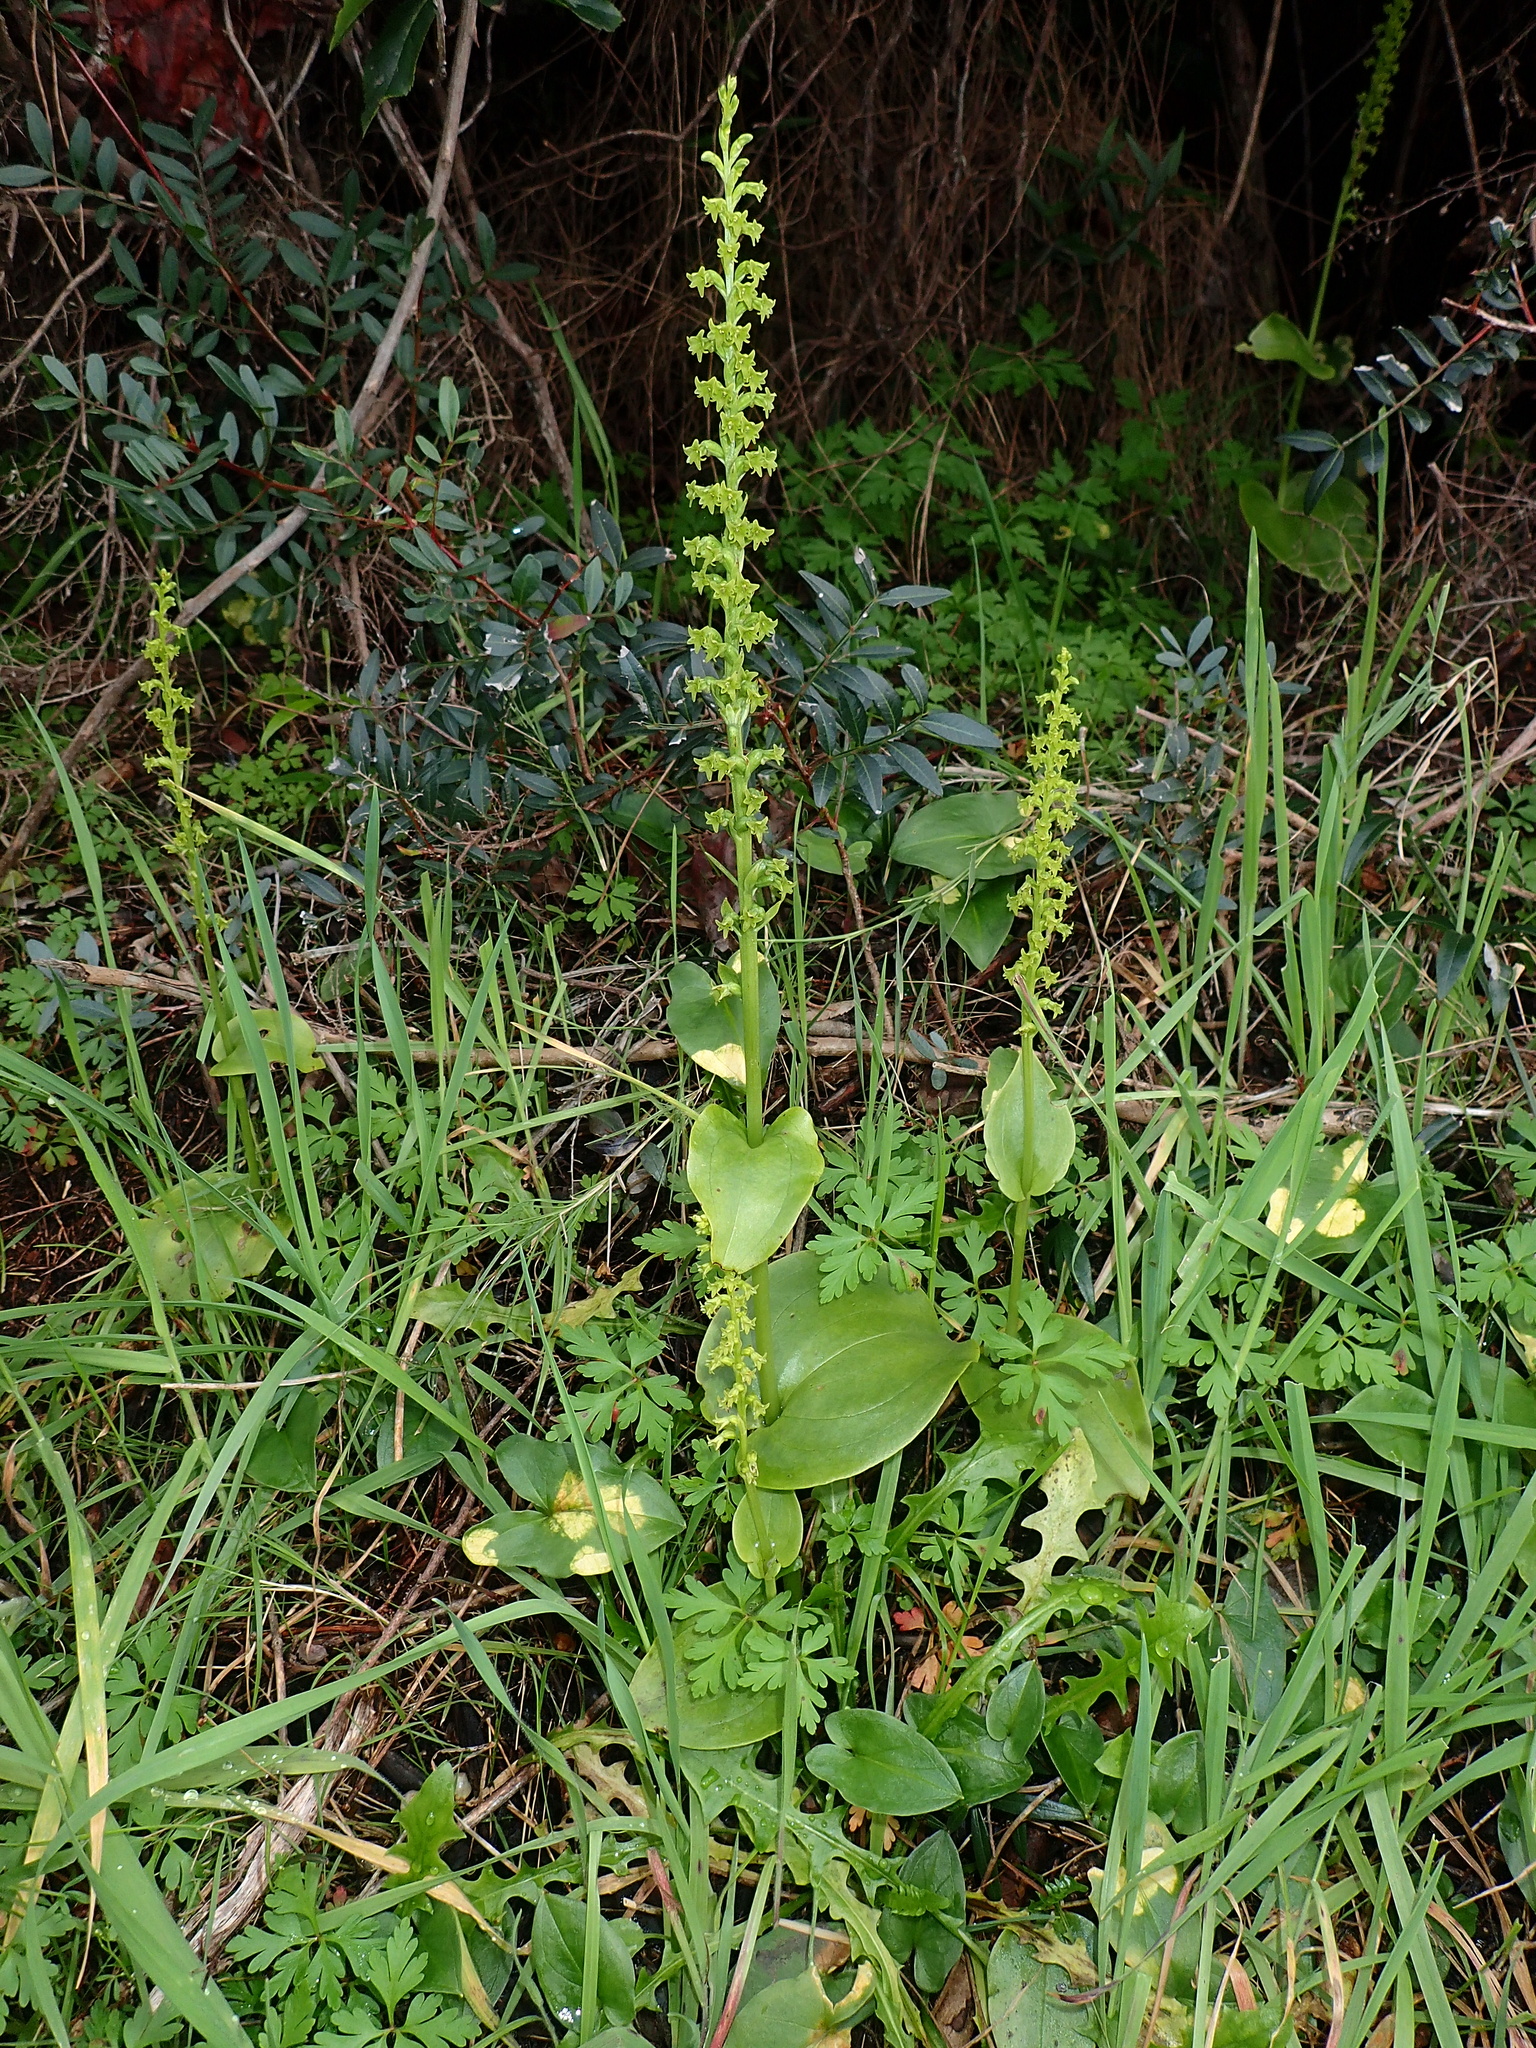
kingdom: Plantae
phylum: Tracheophyta
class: Liliopsida
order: Asparagales
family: Orchidaceae
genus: Gennaria
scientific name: Gennaria diphylla
